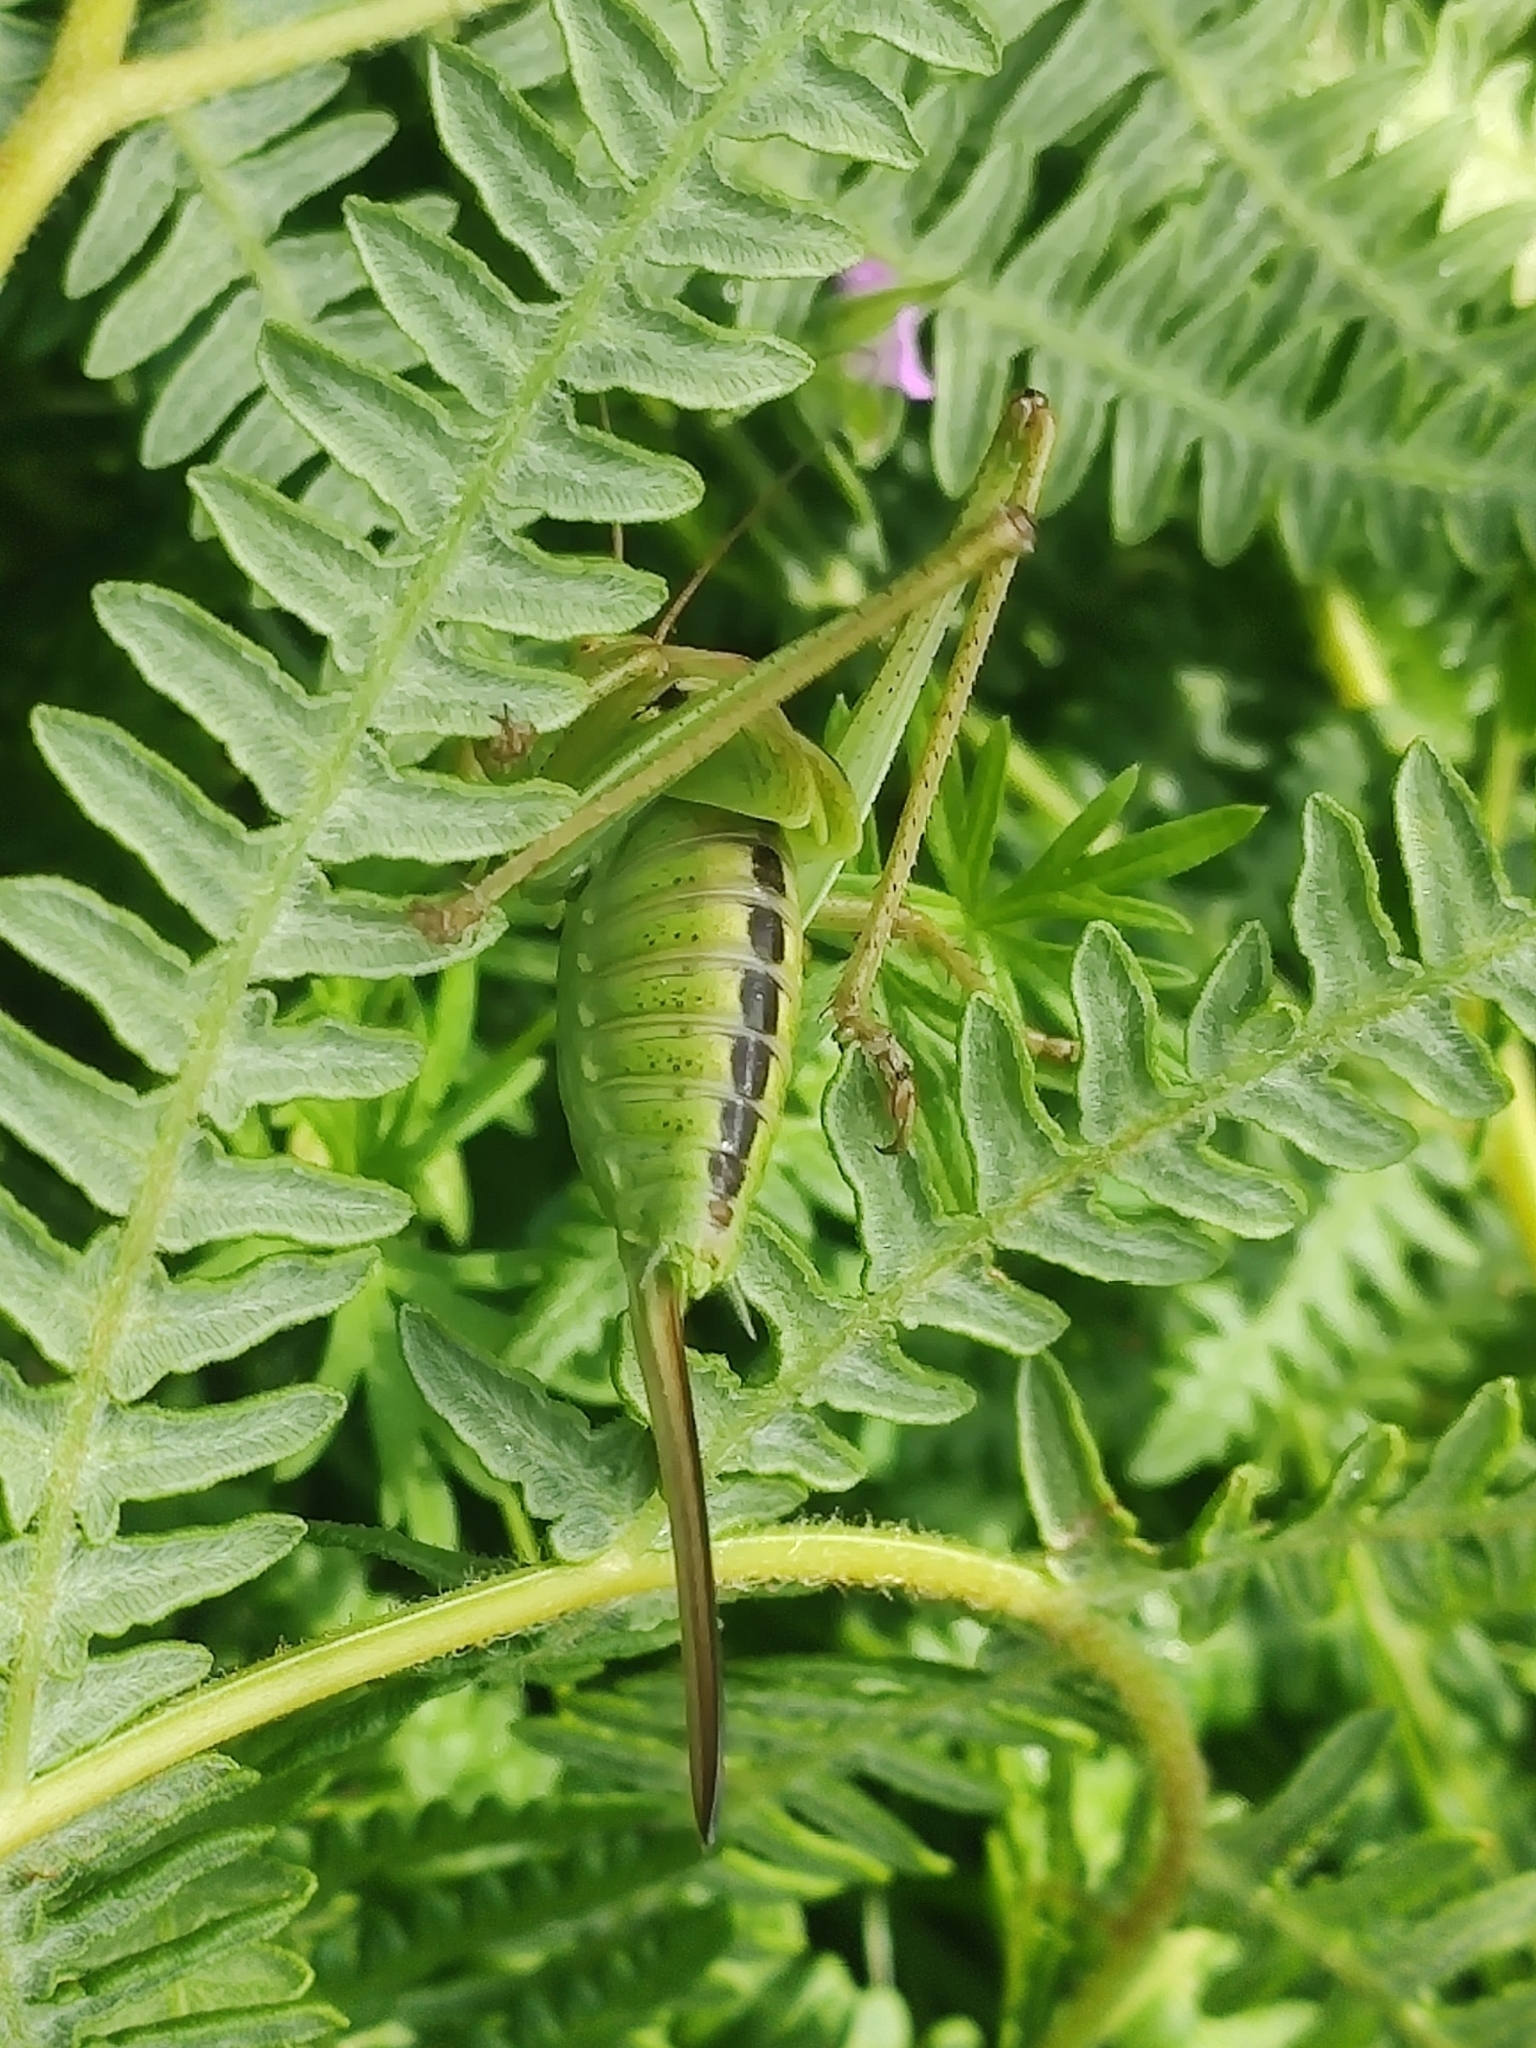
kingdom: Animalia
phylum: Arthropoda
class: Insecta
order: Orthoptera
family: Tettigoniidae
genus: Tettigonia
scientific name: Tettigonia viridissima
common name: Great green bush-cricket
